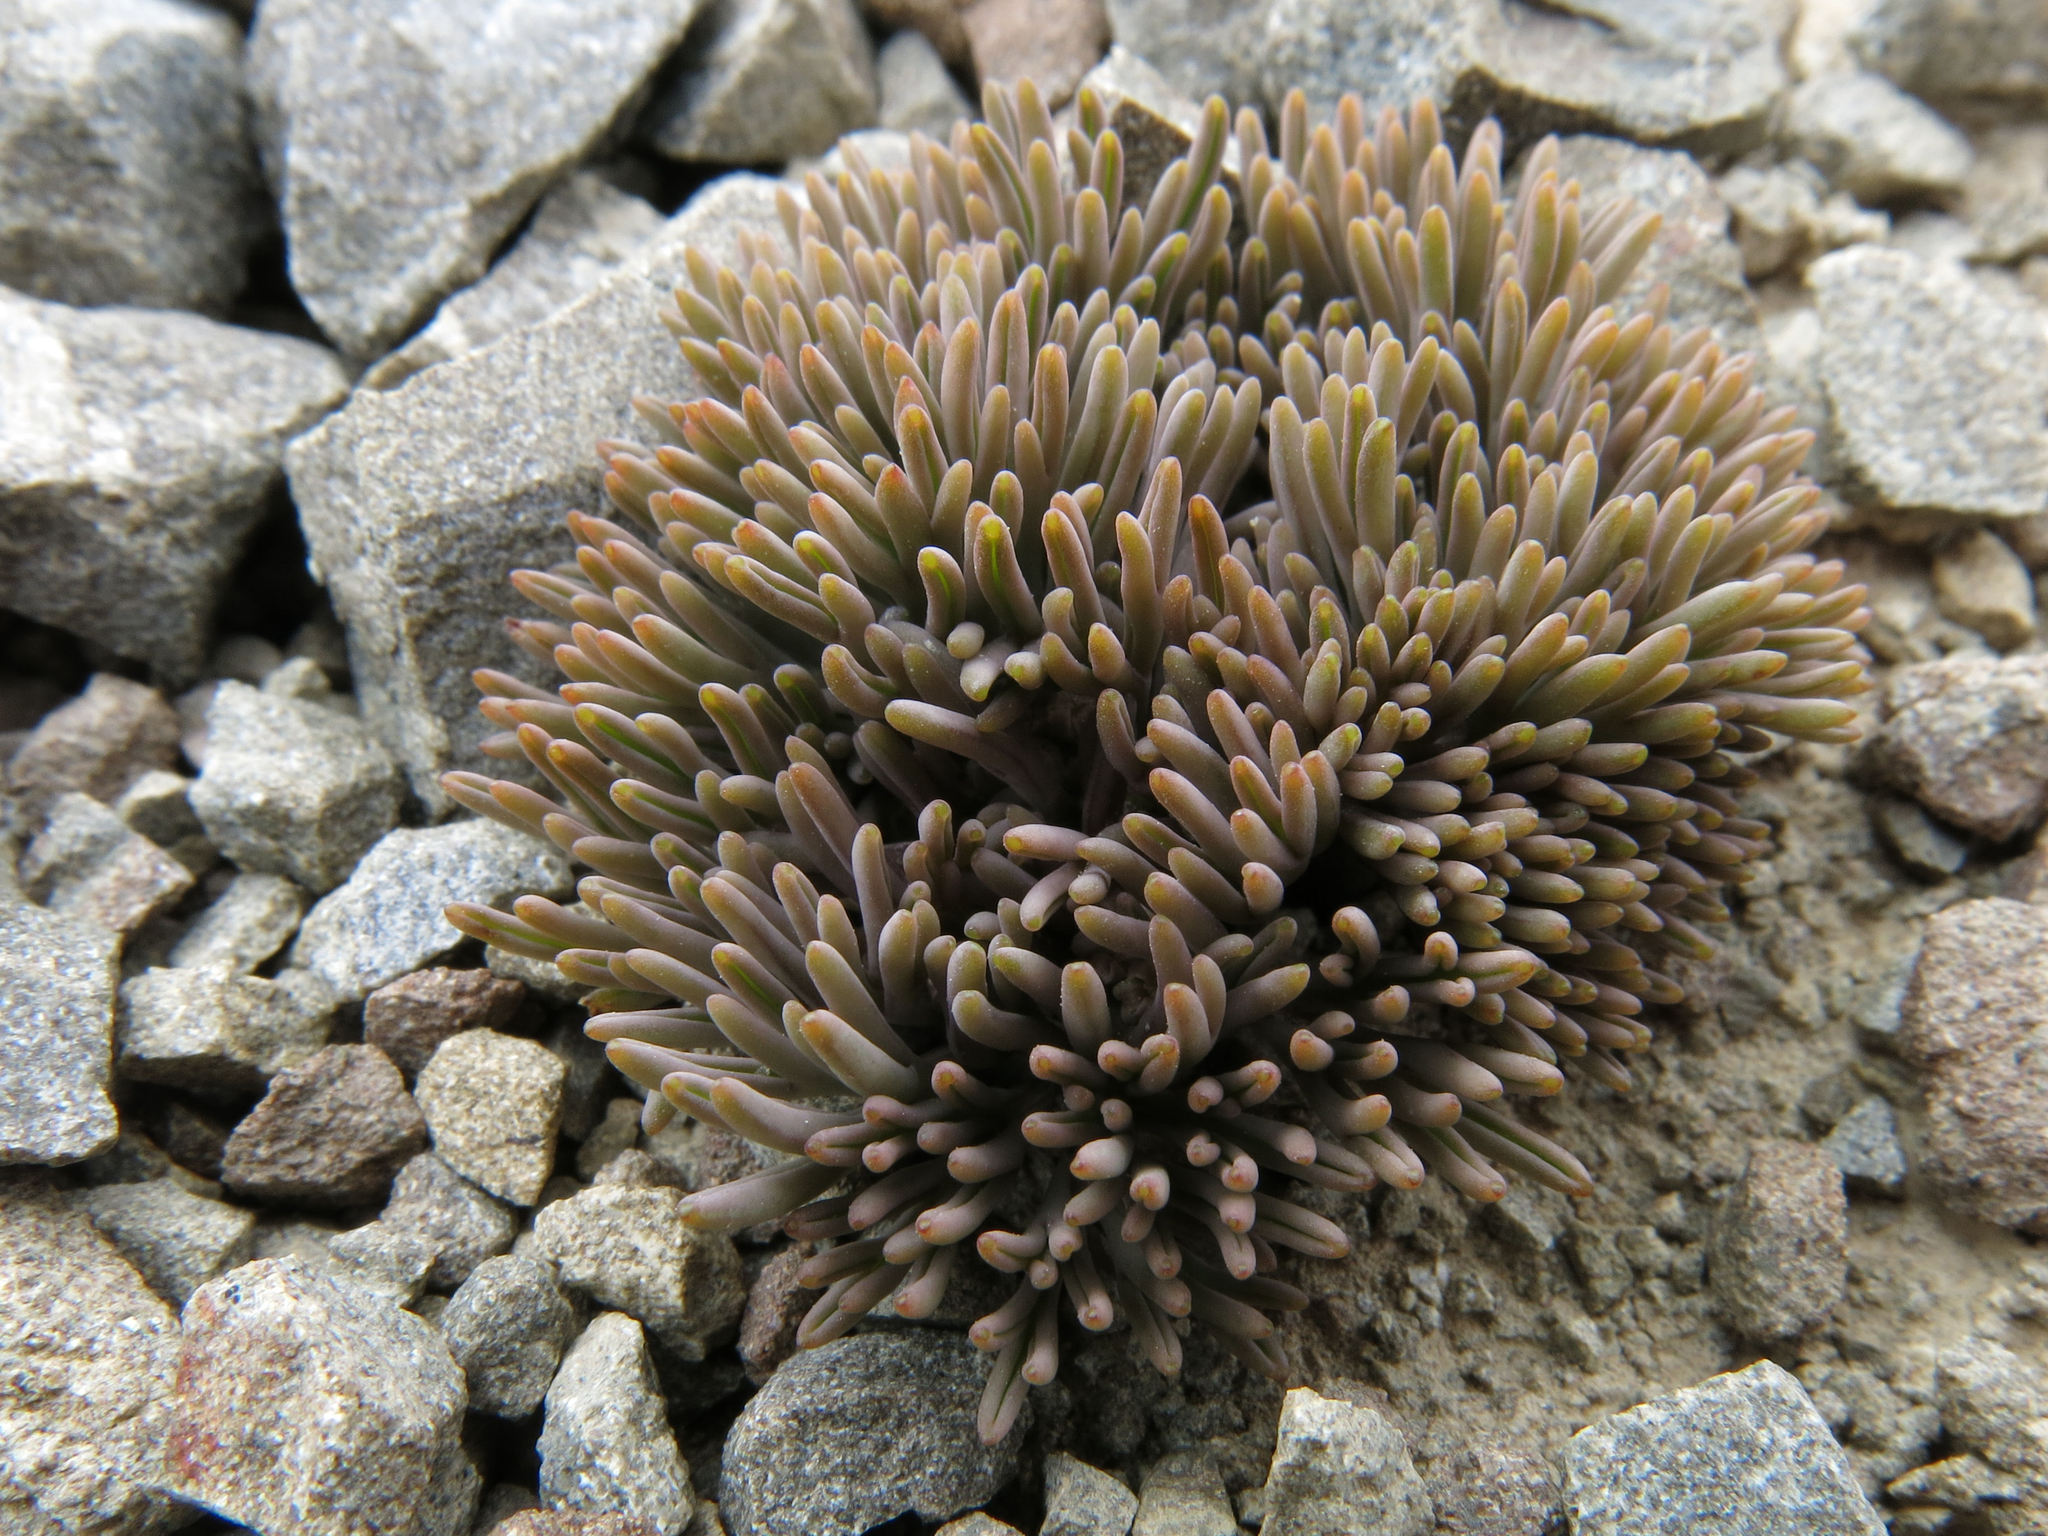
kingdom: Plantae
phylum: Tracheophyta
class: Magnoliopsida
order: Apiales
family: Apiaceae
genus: Lignocarpa
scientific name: Lignocarpa carnosula
